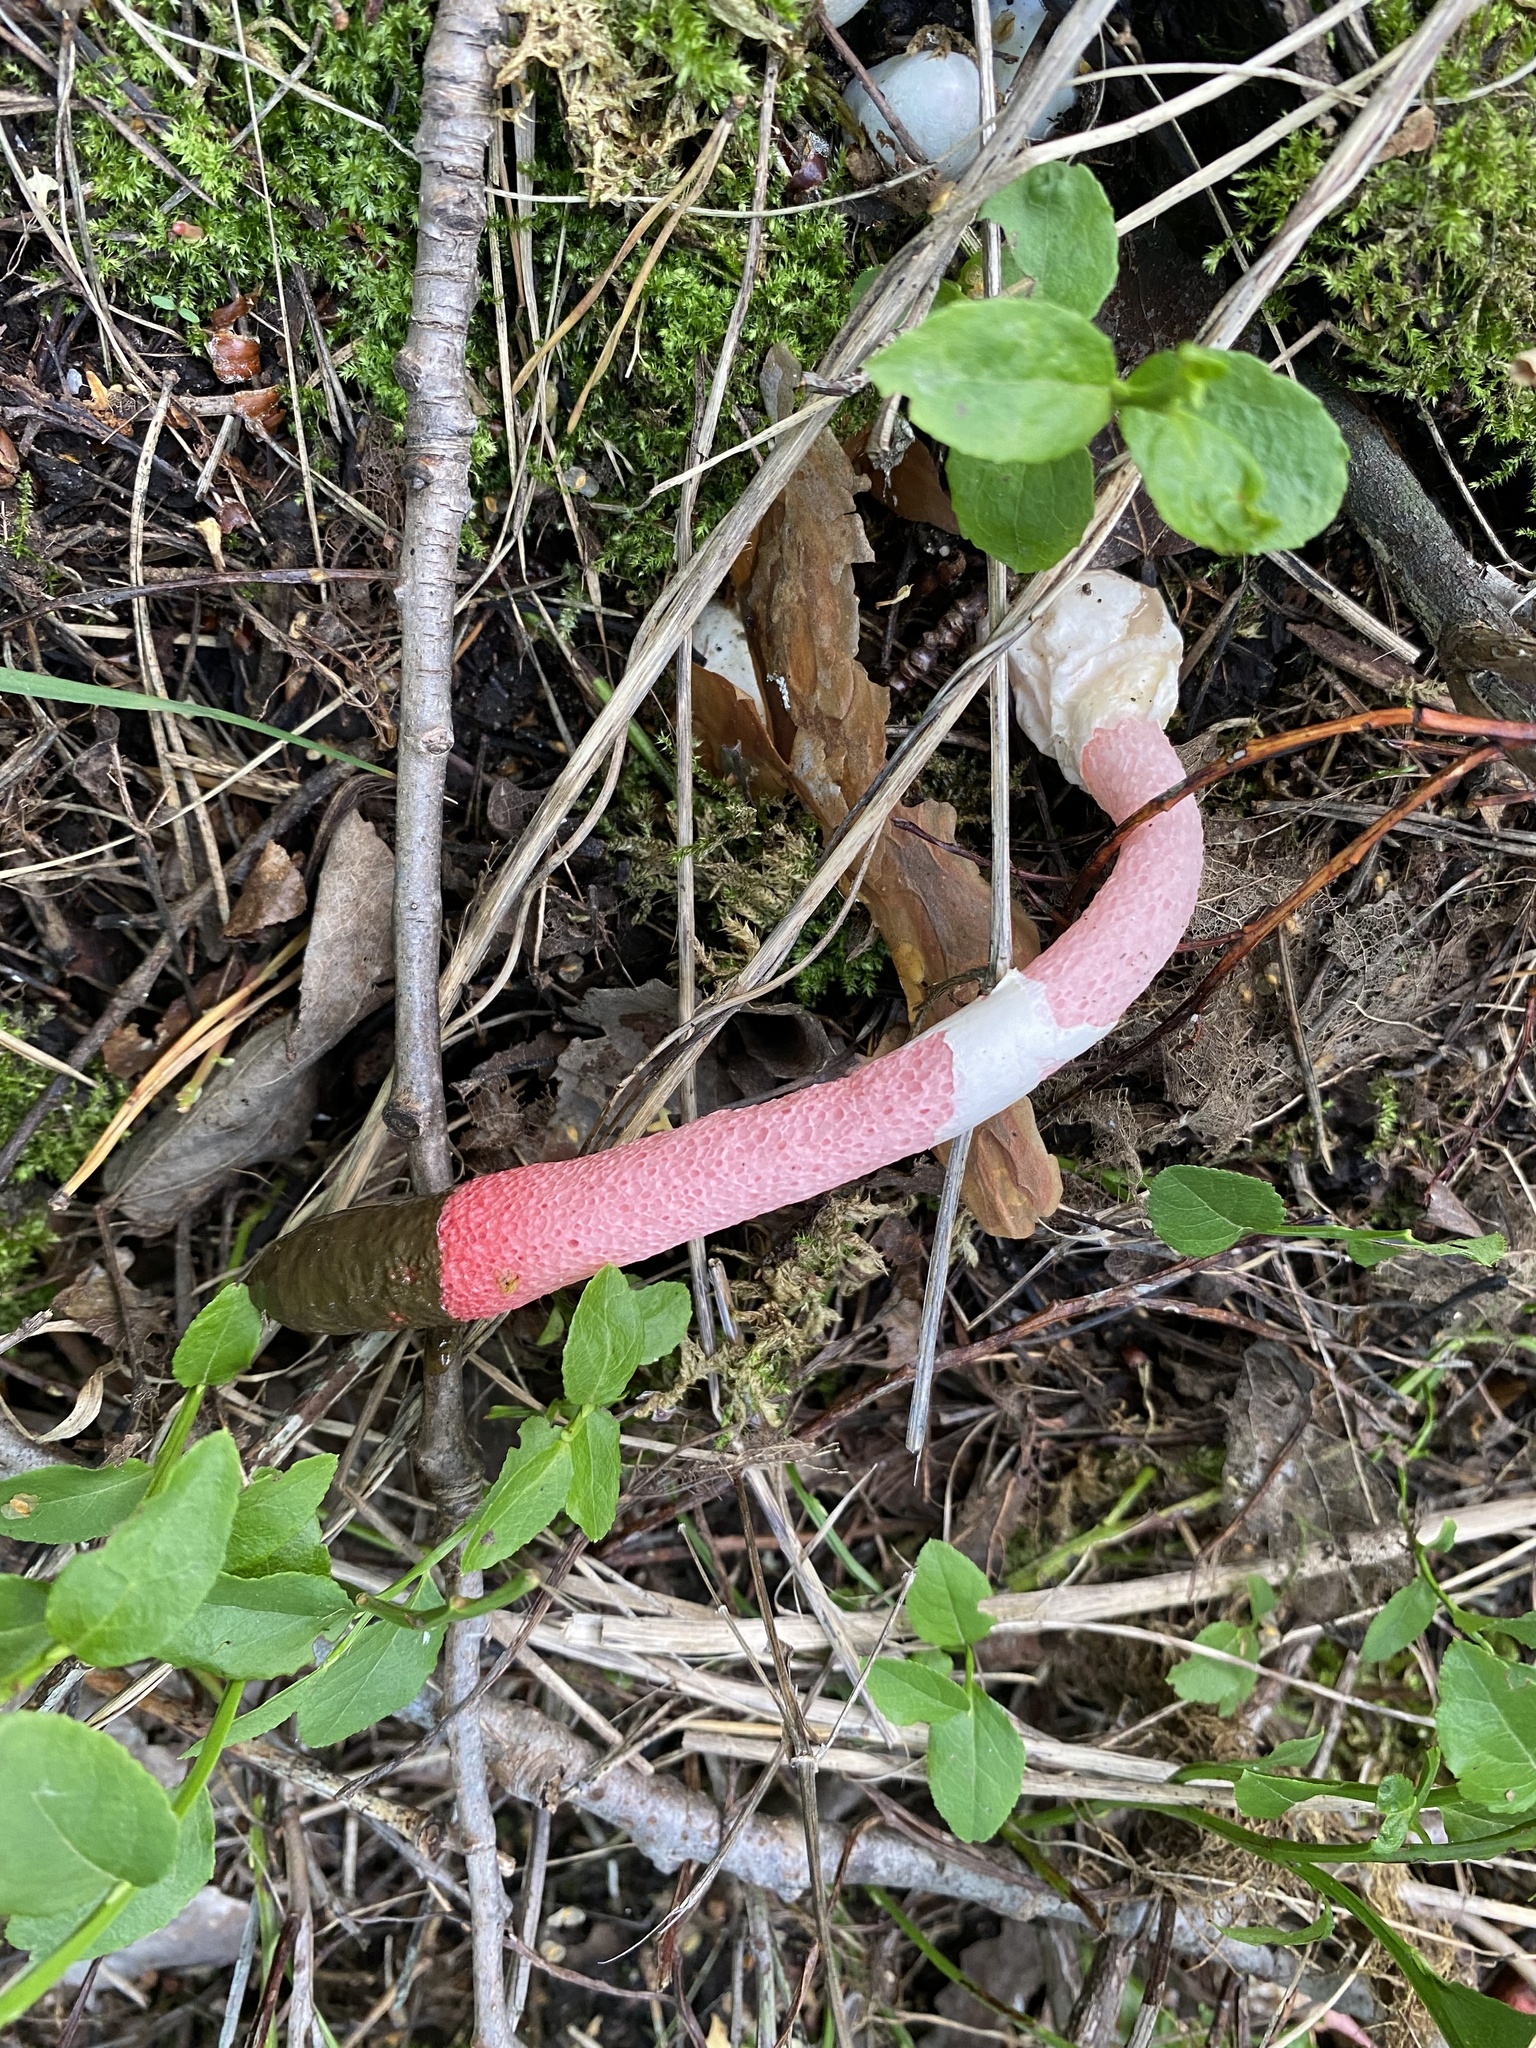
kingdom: Fungi
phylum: Basidiomycota
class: Agaricomycetes
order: Phallales
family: Phallaceae
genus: Mutinus
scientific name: Mutinus ravenelii
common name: Red stinkhorn
